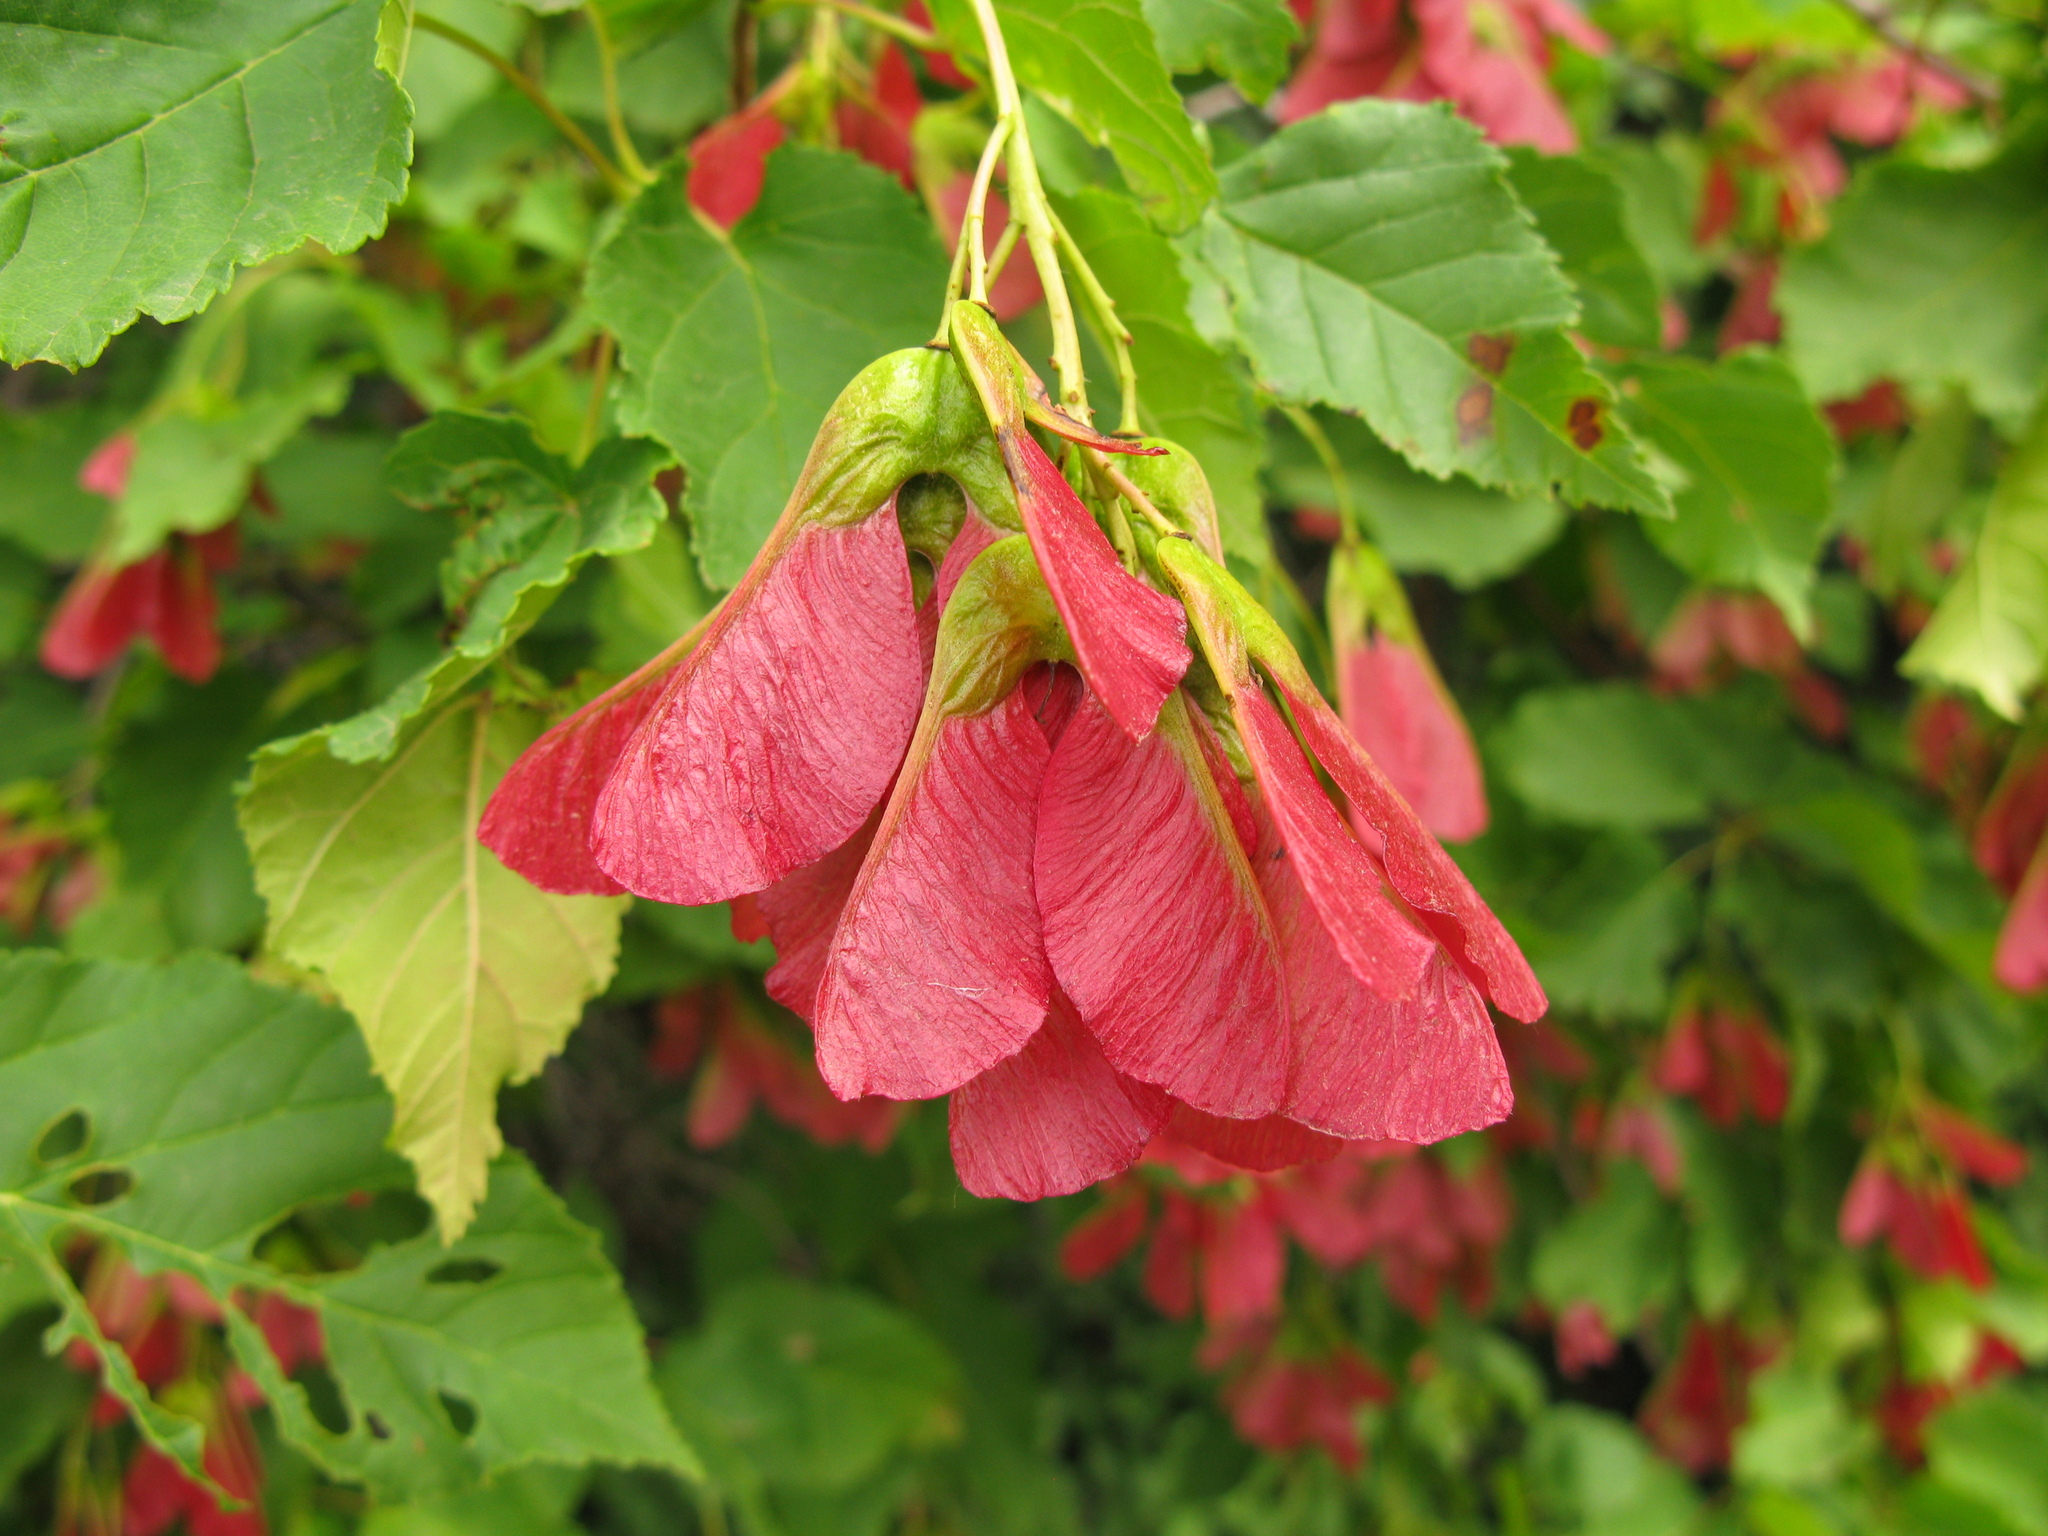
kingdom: Plantae
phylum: Tracheophyta
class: Magnoliopsida
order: Sapindales
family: Sapindaceae
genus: Acer
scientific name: Acer tataricum
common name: Tartar maple
